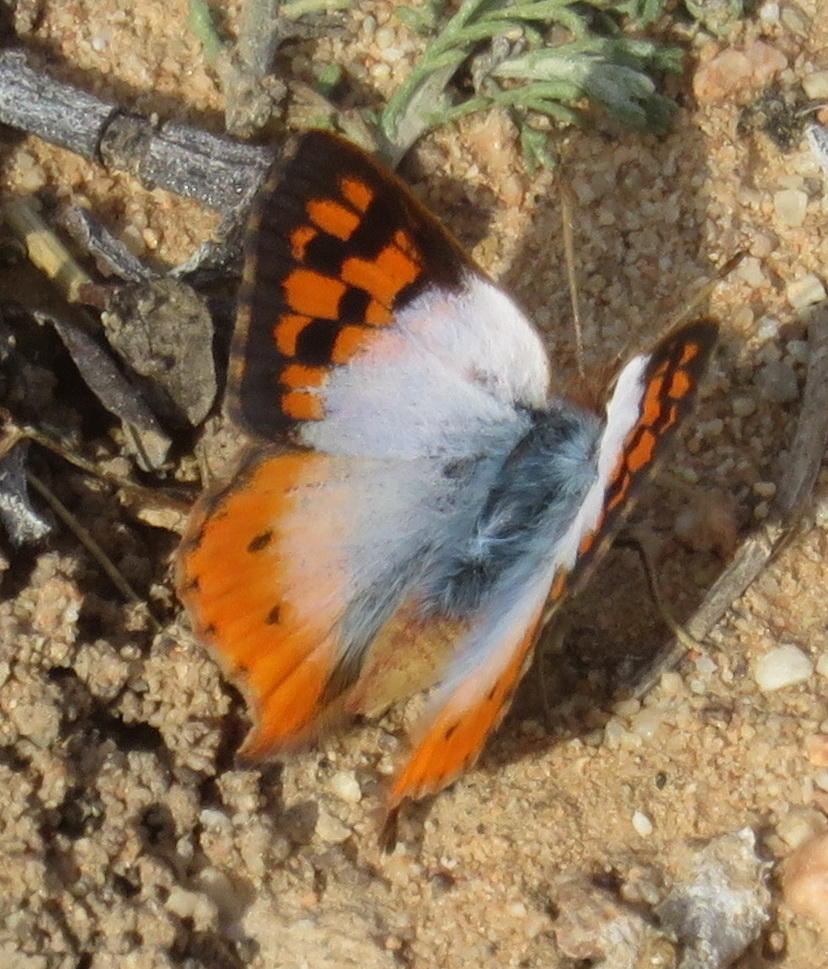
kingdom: Animalia
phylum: Arthropoda
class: Insecta
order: Lepidoptera
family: Lycaenidae
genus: Chrysoritis
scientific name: Chrysoritis pan
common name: Pan opal
